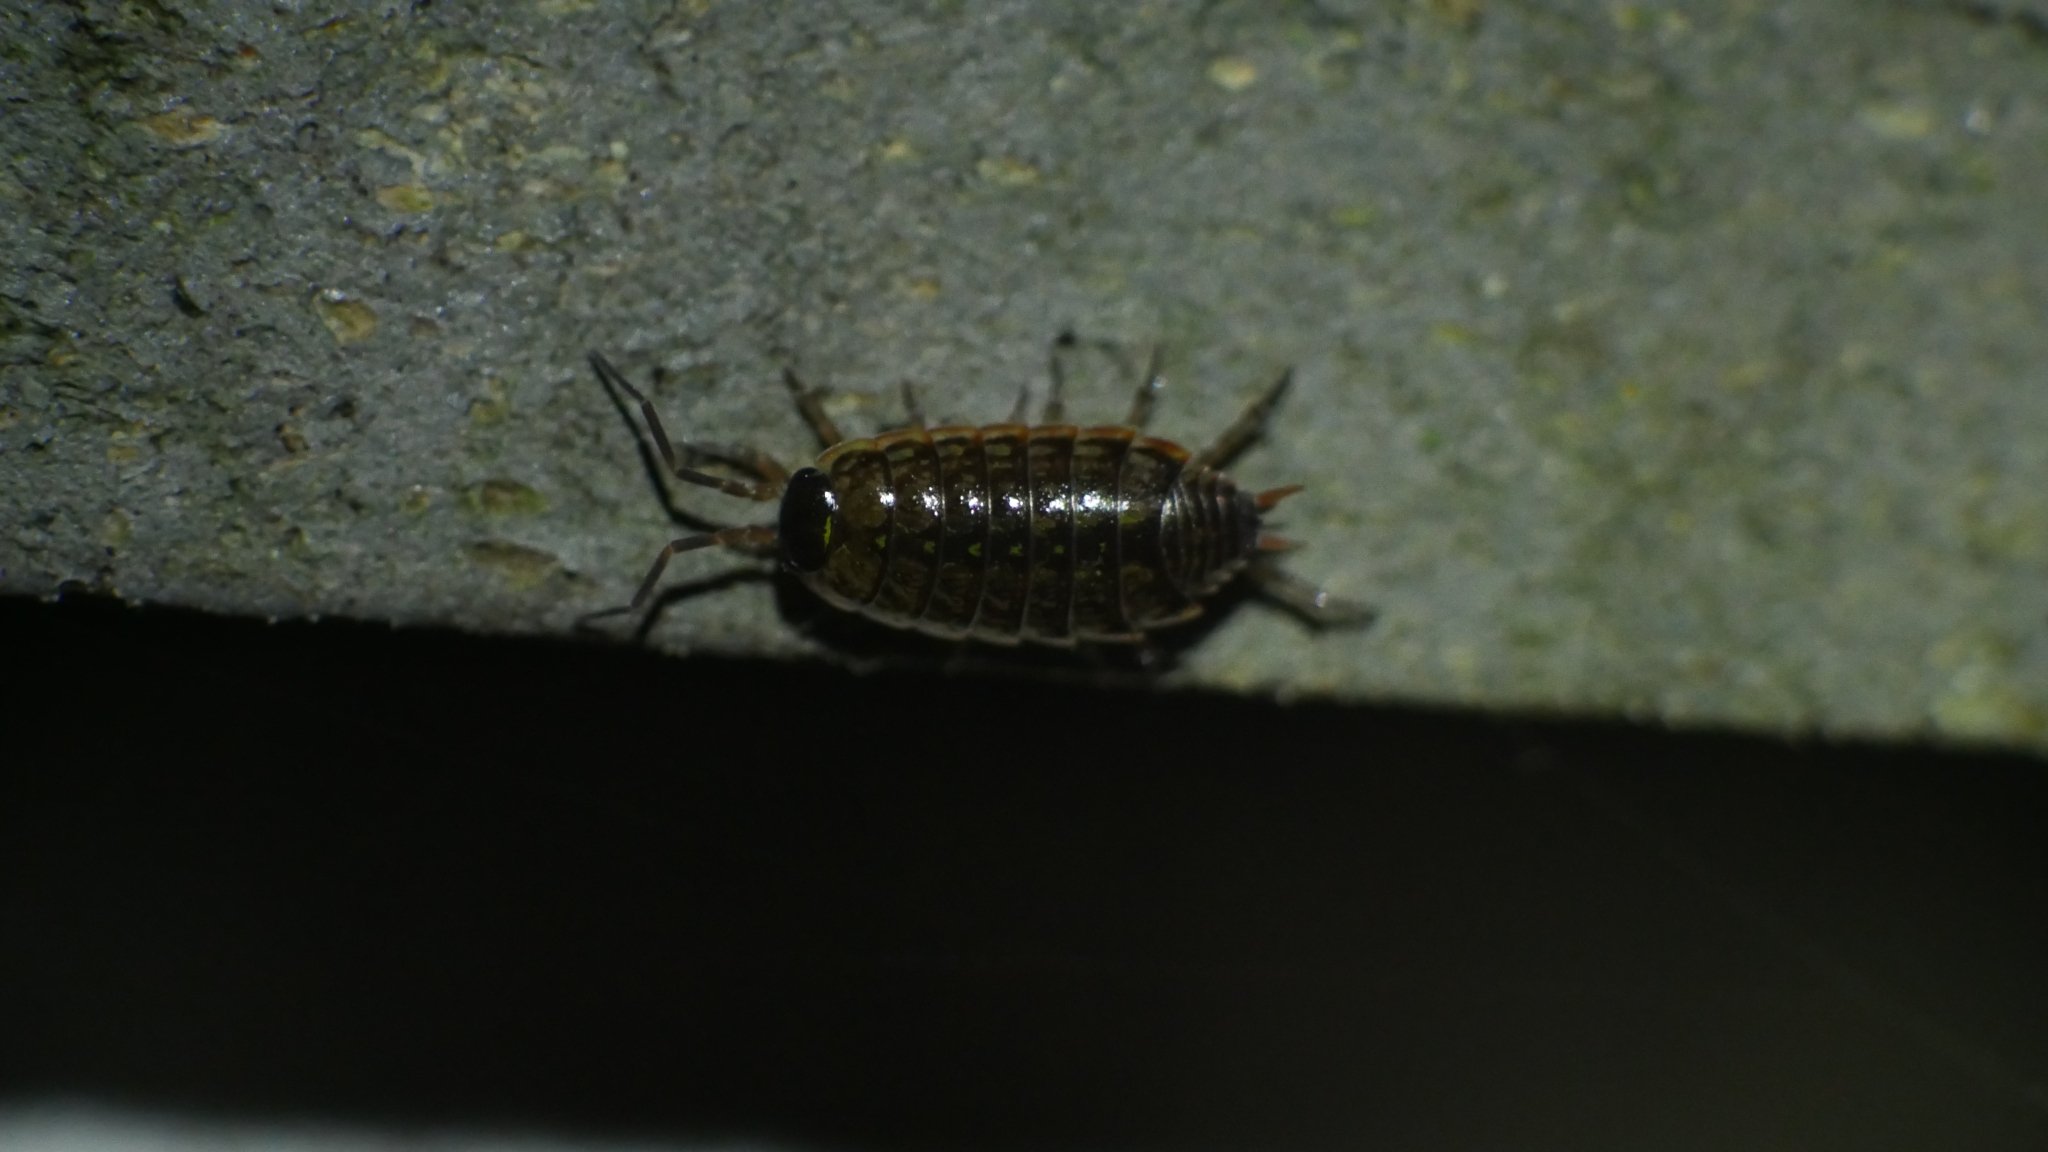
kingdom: Animalia
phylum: Arthropoda
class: Malacostraca
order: Isopoda
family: Philosciidae
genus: Philoscia
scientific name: Philoscia muscorum
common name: Common striped woodlouse
